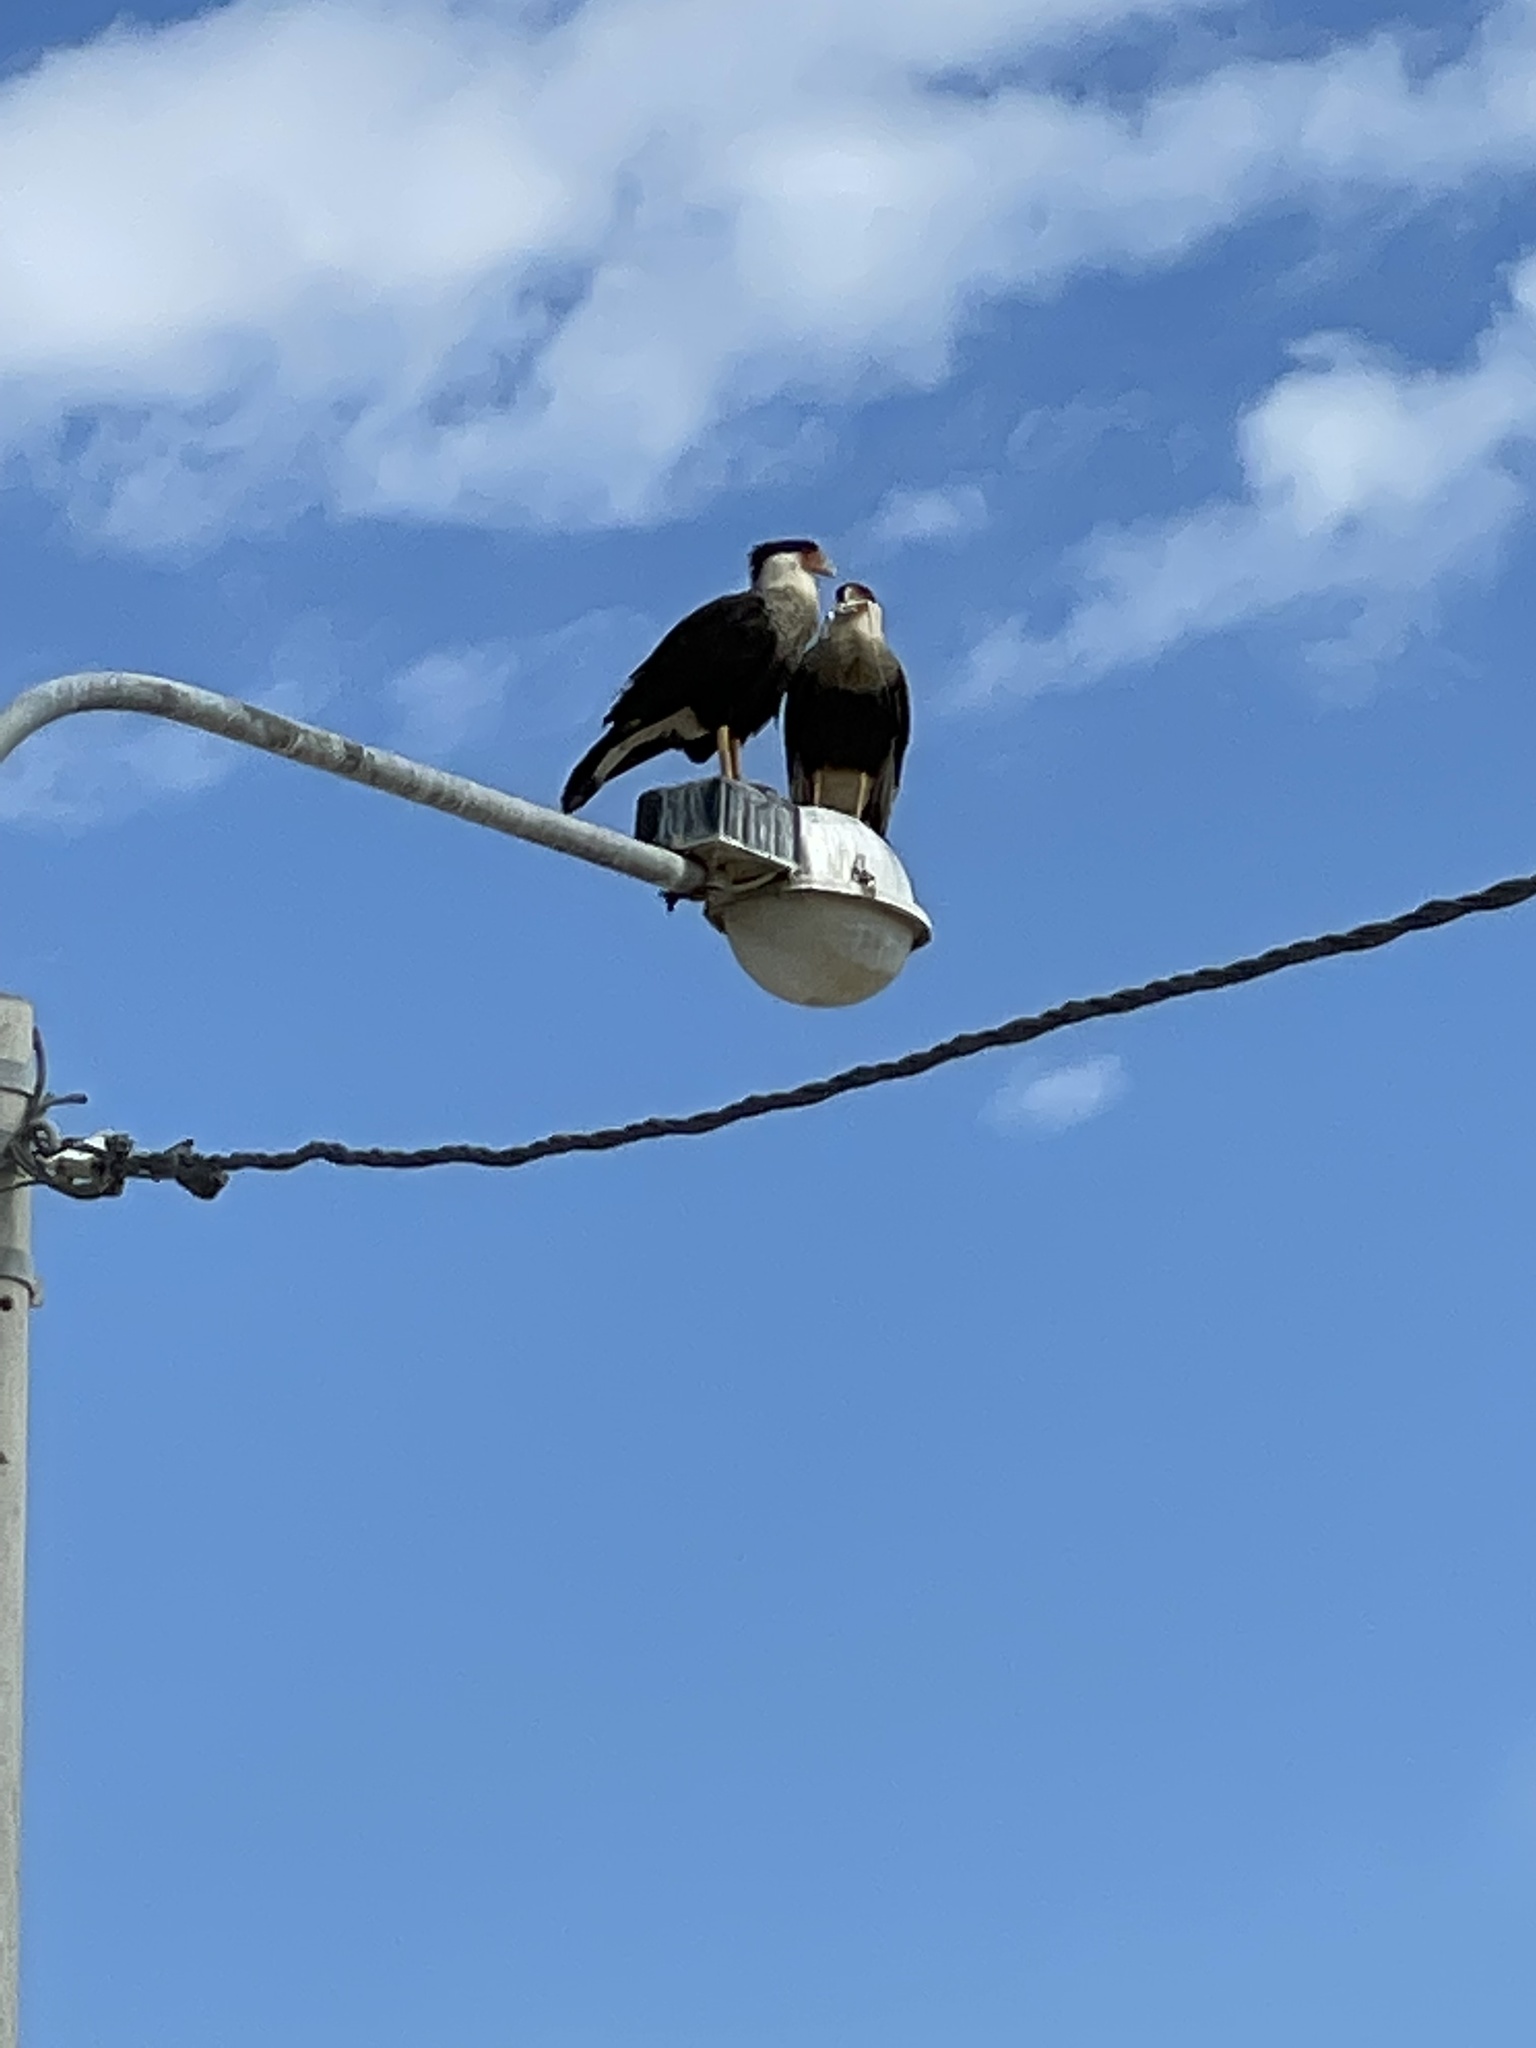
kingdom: Animalia
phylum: Chordata
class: Aves
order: Falconiformes
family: Falconidae
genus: Caracara
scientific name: Caracara plancus
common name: Southern caracara
